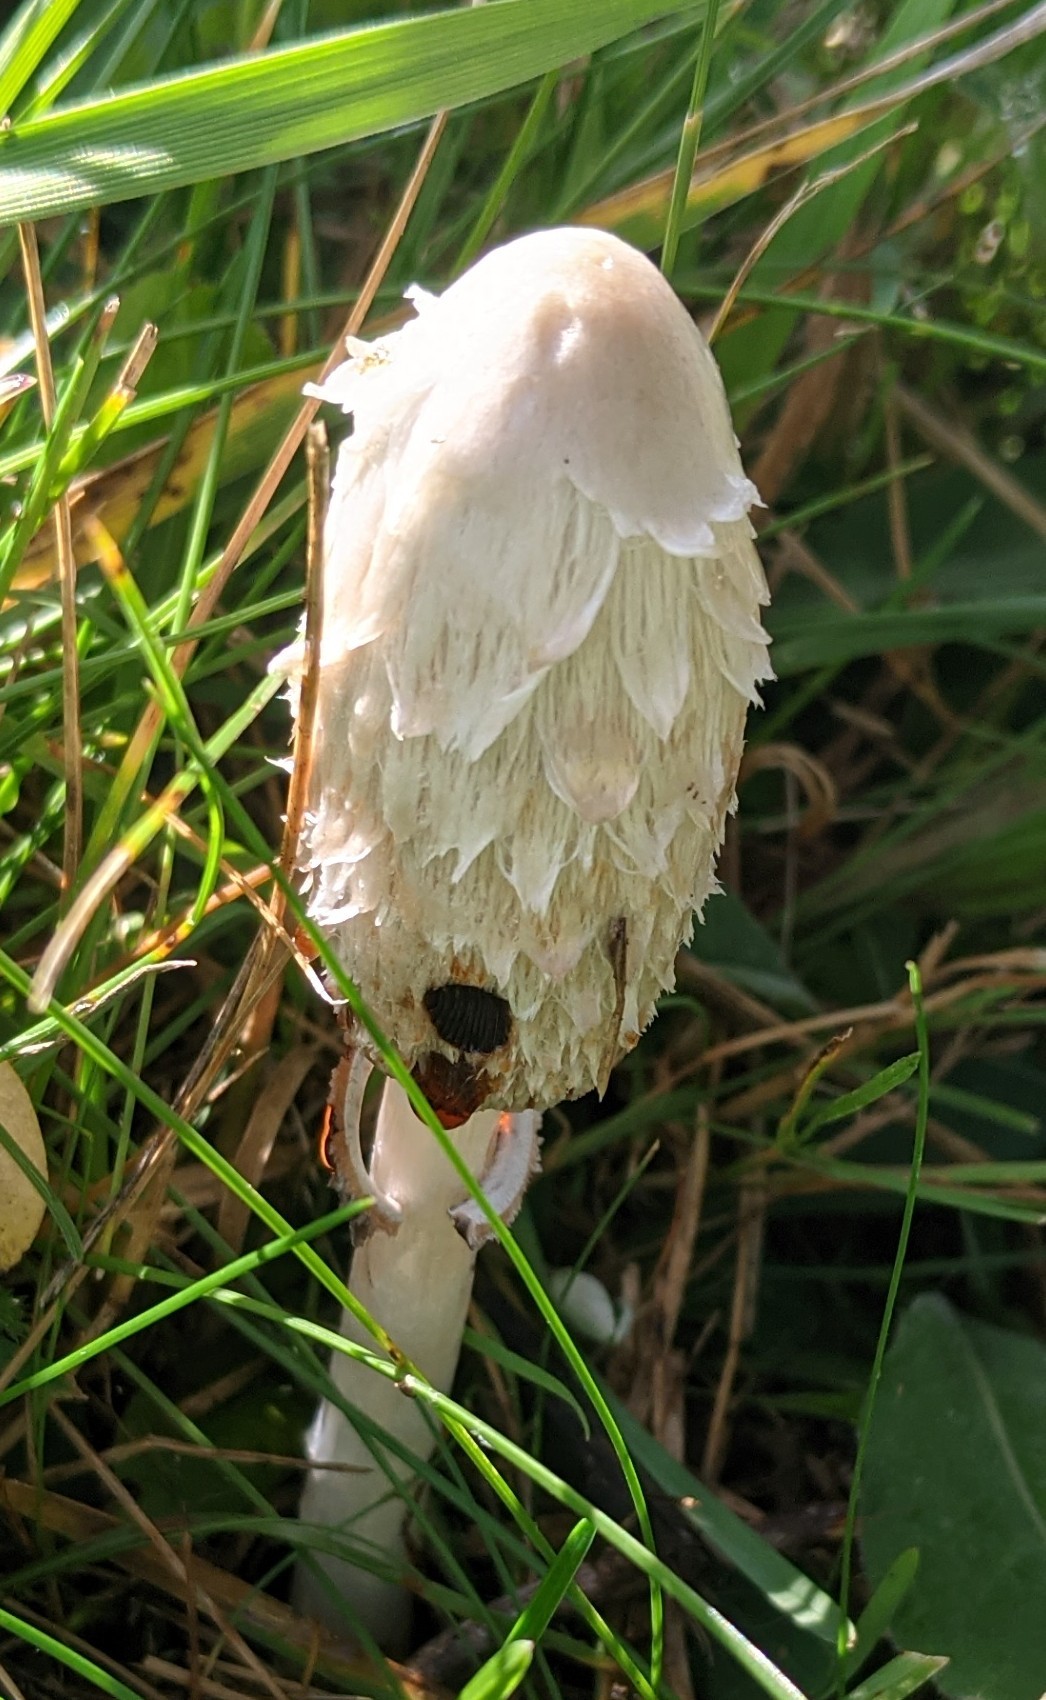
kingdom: Fungi
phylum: Basidiomycota
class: Agaricomycetes
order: Agaricales
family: Agaricaceae
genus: Coprinus
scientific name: Coprinus comatus
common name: Lawyer's wig
